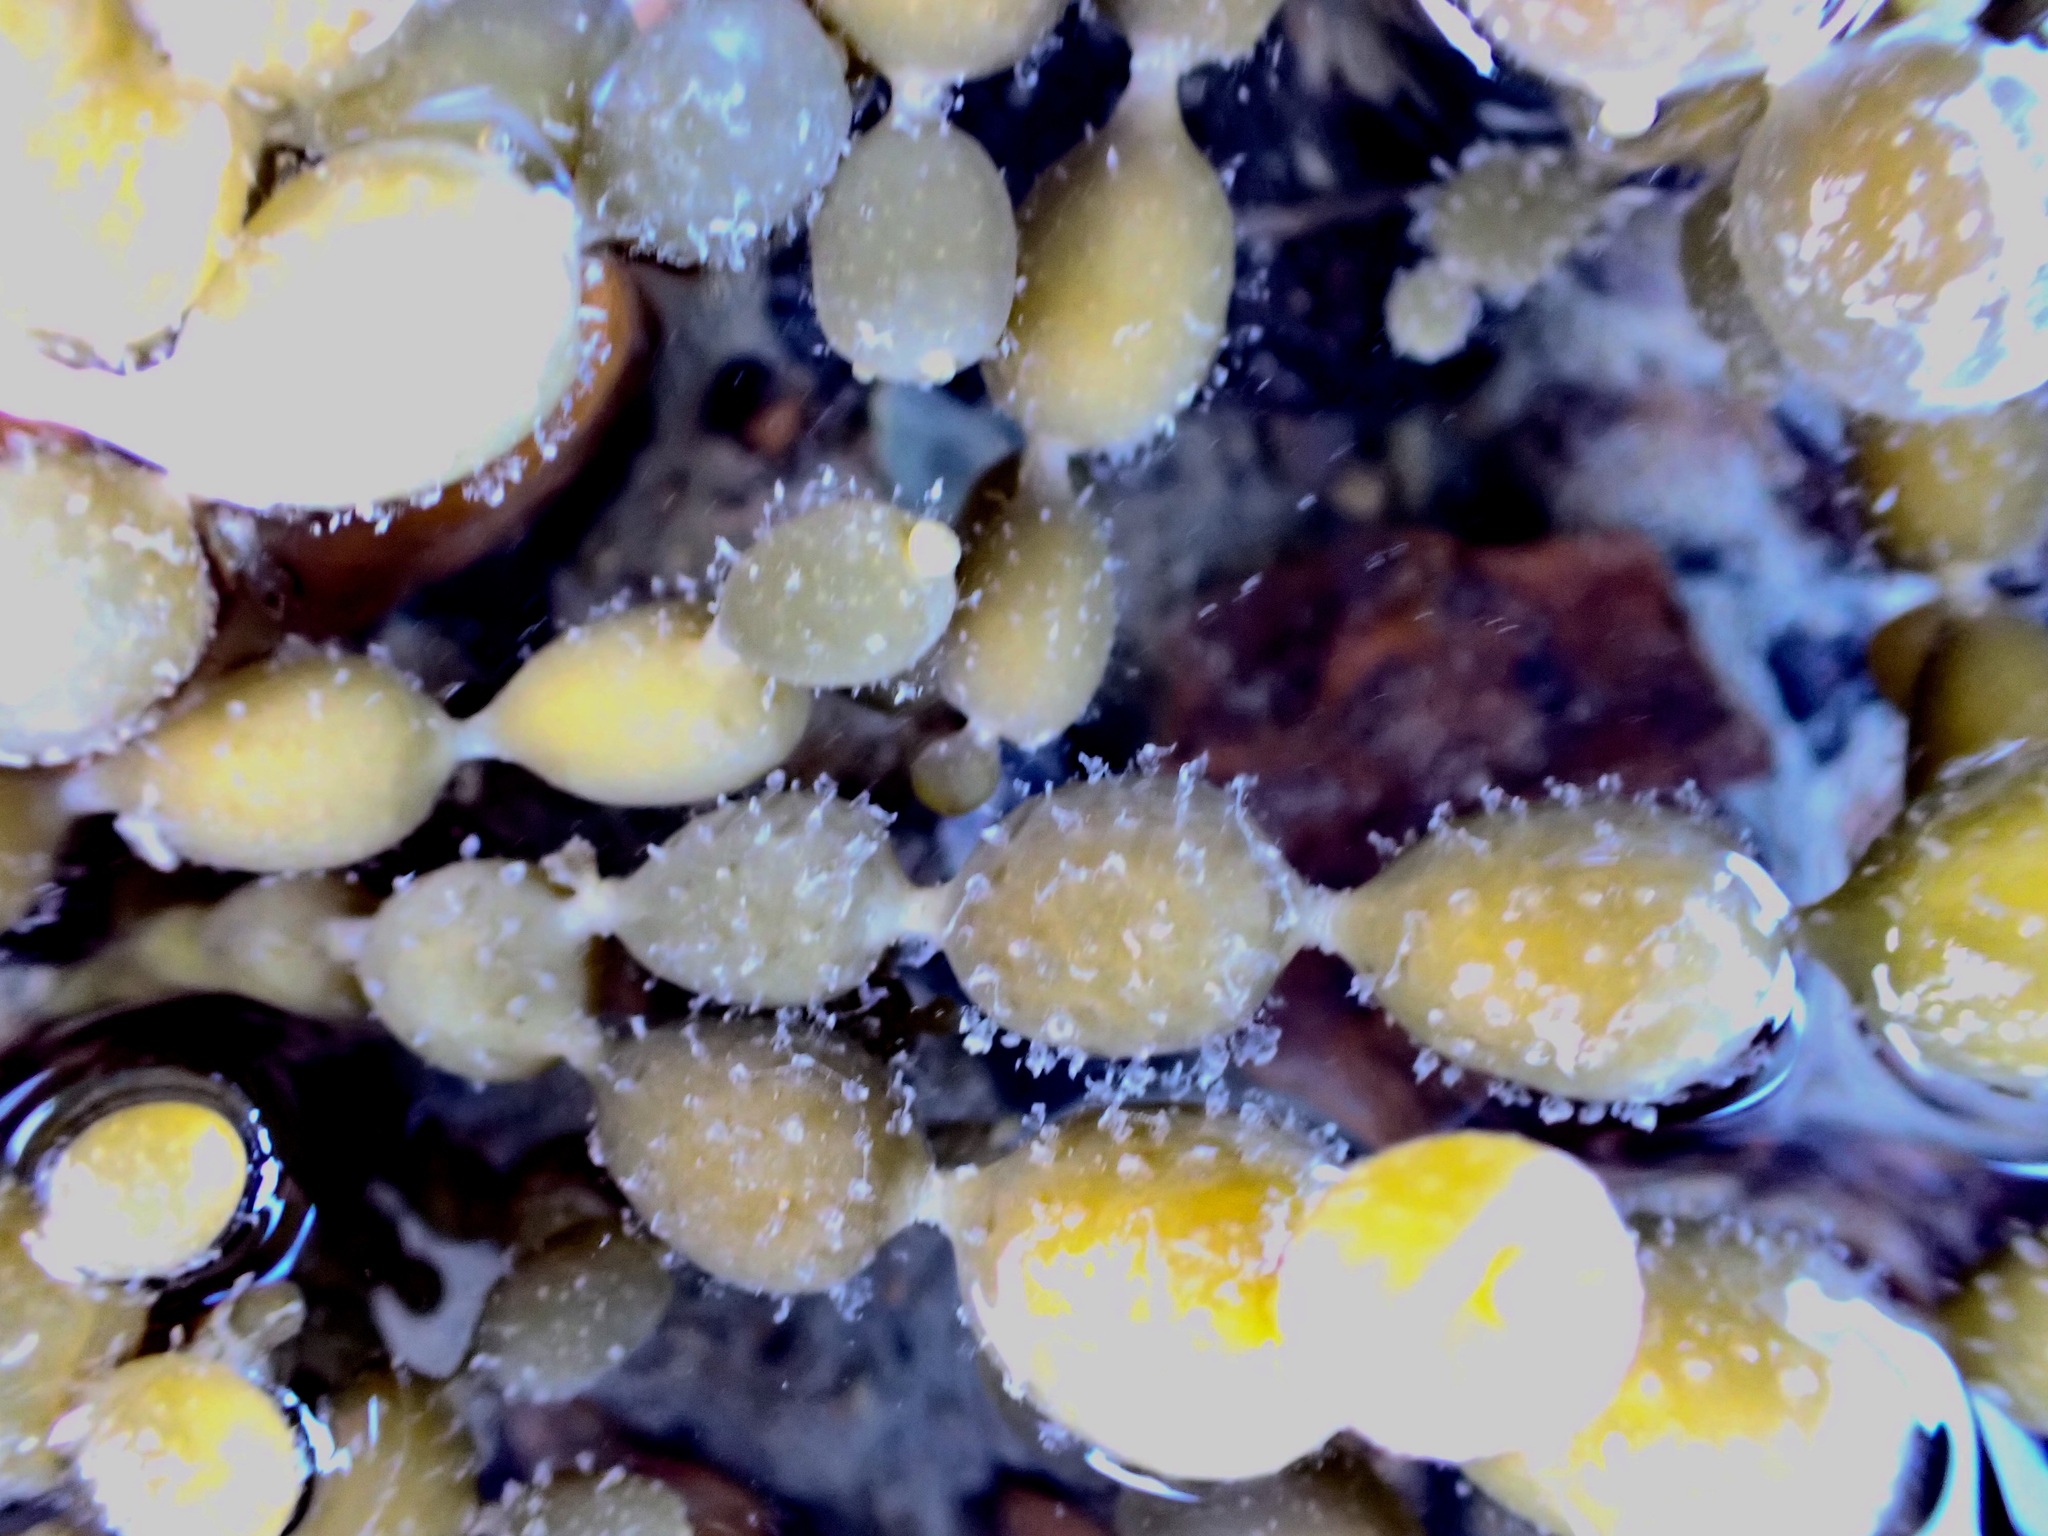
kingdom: Chromista
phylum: Ochrophyta
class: Phaeophyceae
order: Fucales
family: Hormosiraceae
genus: Hormosira
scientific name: Hormosira banksii
